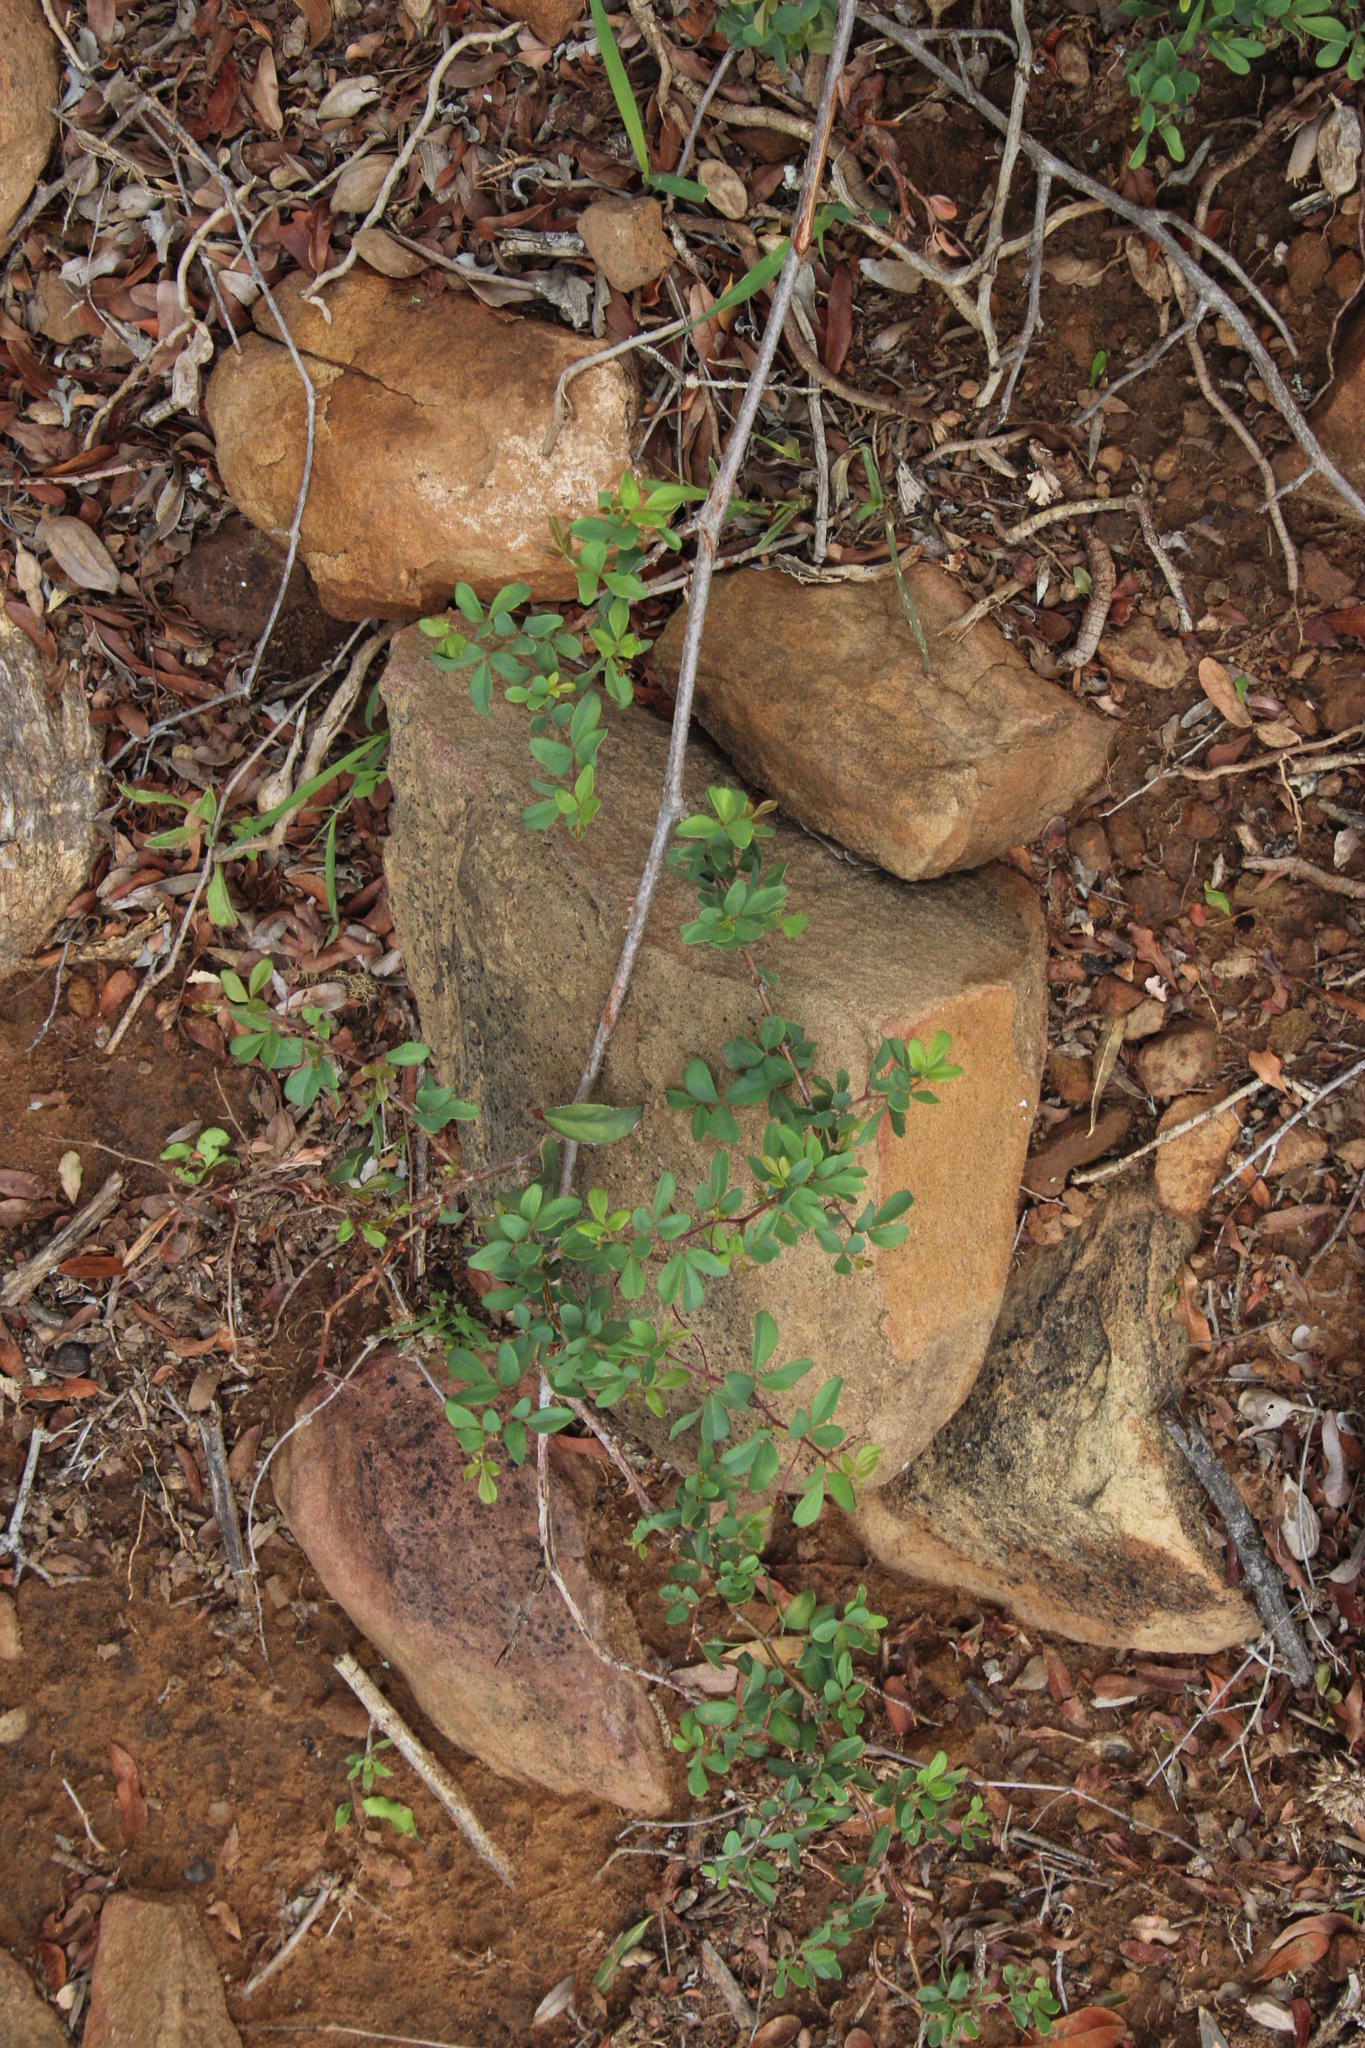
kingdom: Plantae
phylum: Tracheophyta
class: Magnoliopsida
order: Vitales
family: Vitaceae
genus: Rhoicissus
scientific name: Rhoicissus tridentata
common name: Common forest grape
